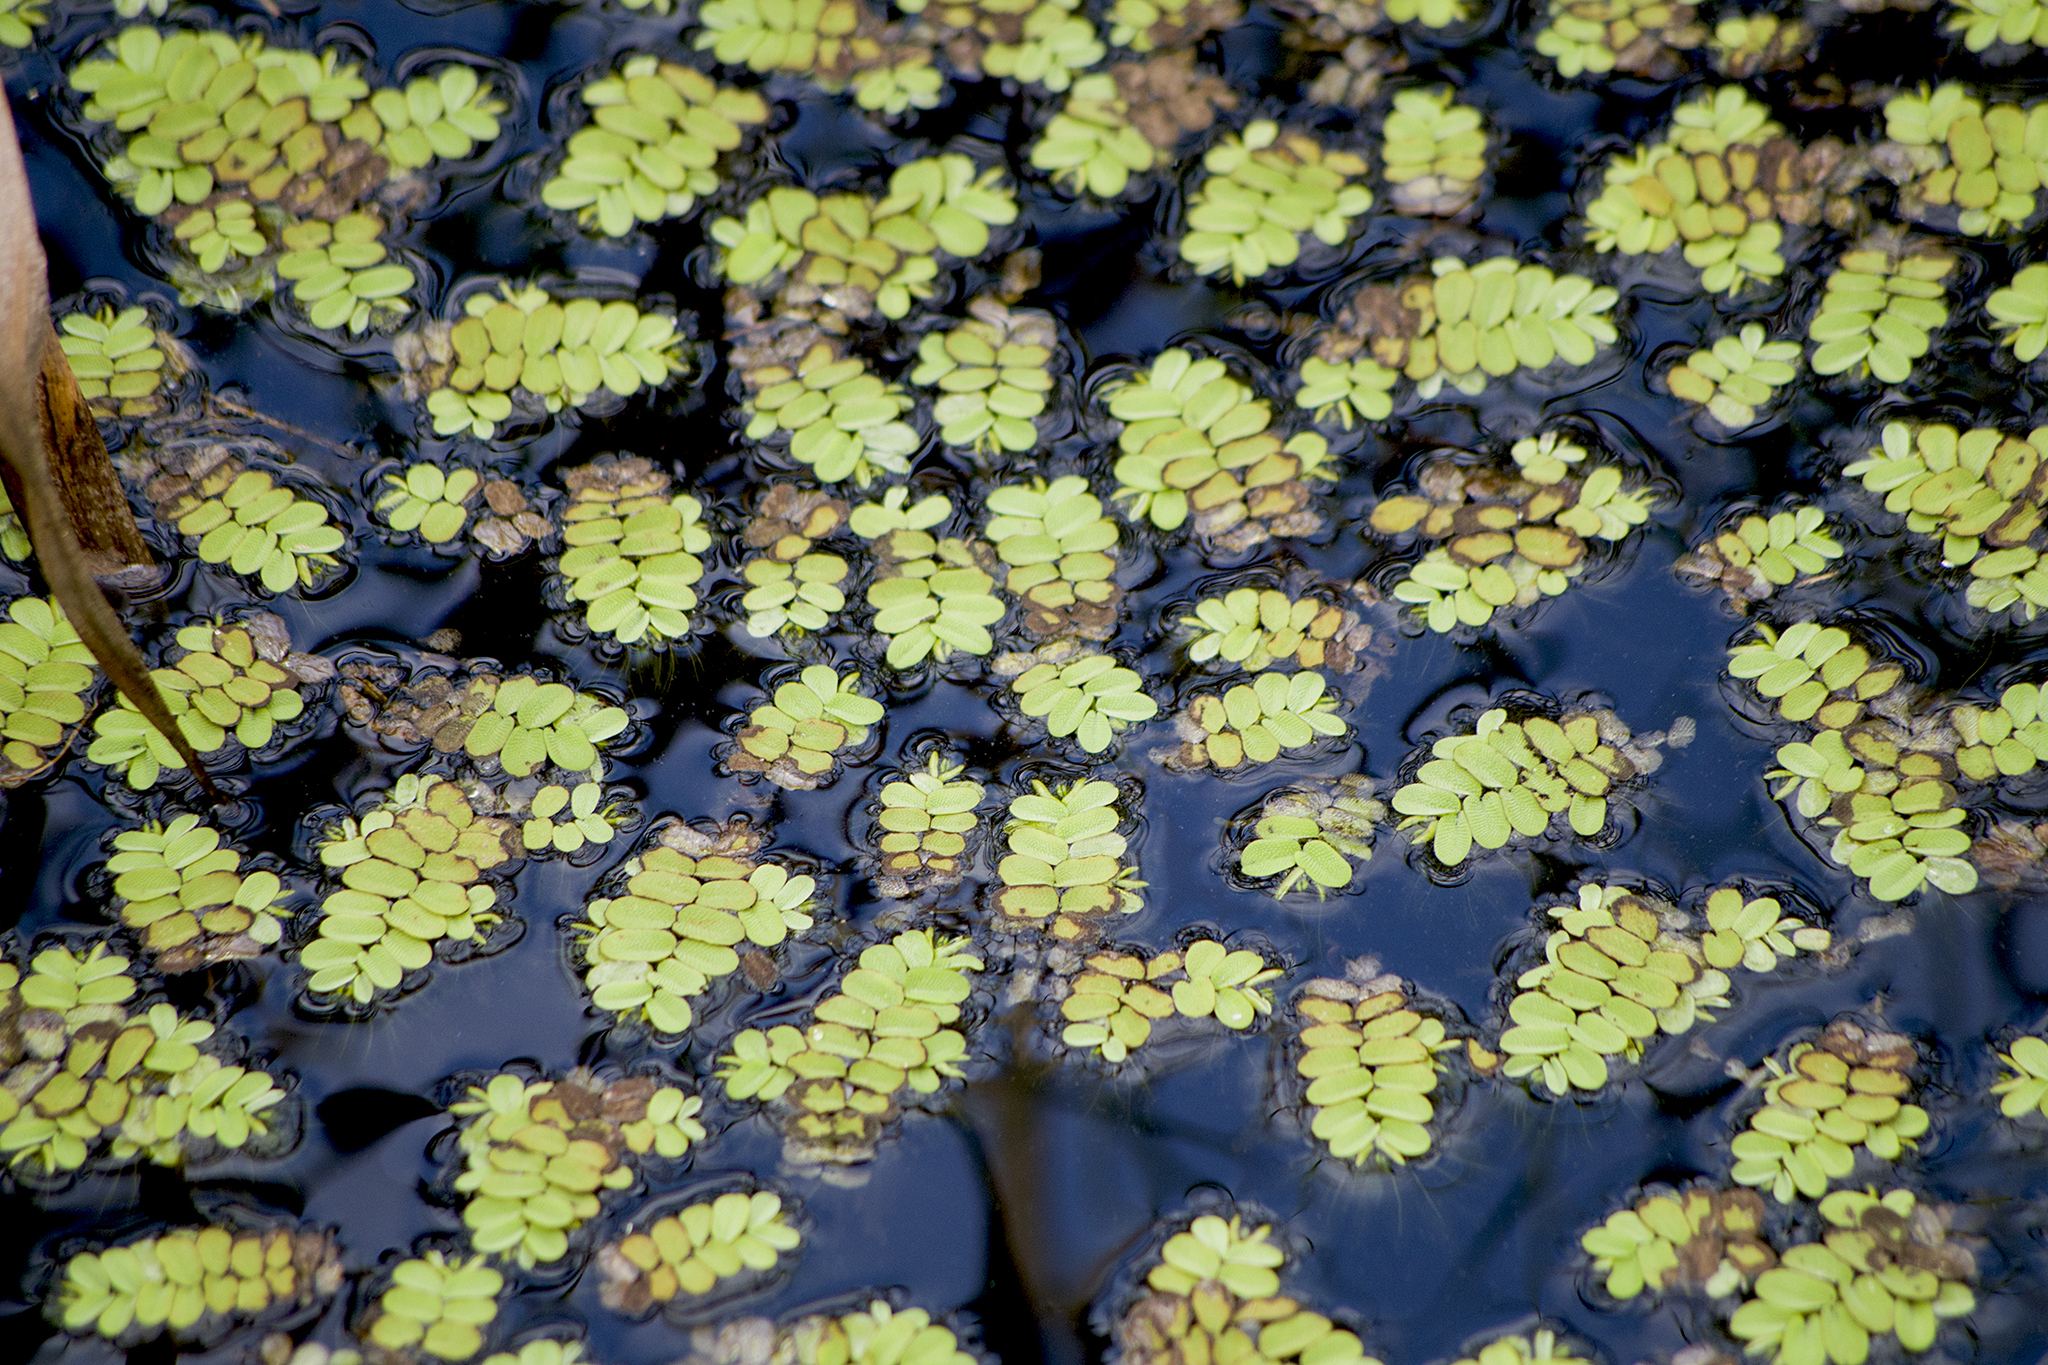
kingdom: Plantae
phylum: Tracheophyta
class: Polypodiopsida
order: Salviniales
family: Salviniaceae
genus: Salvinia
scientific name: Salvinia natans
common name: Floating fern
